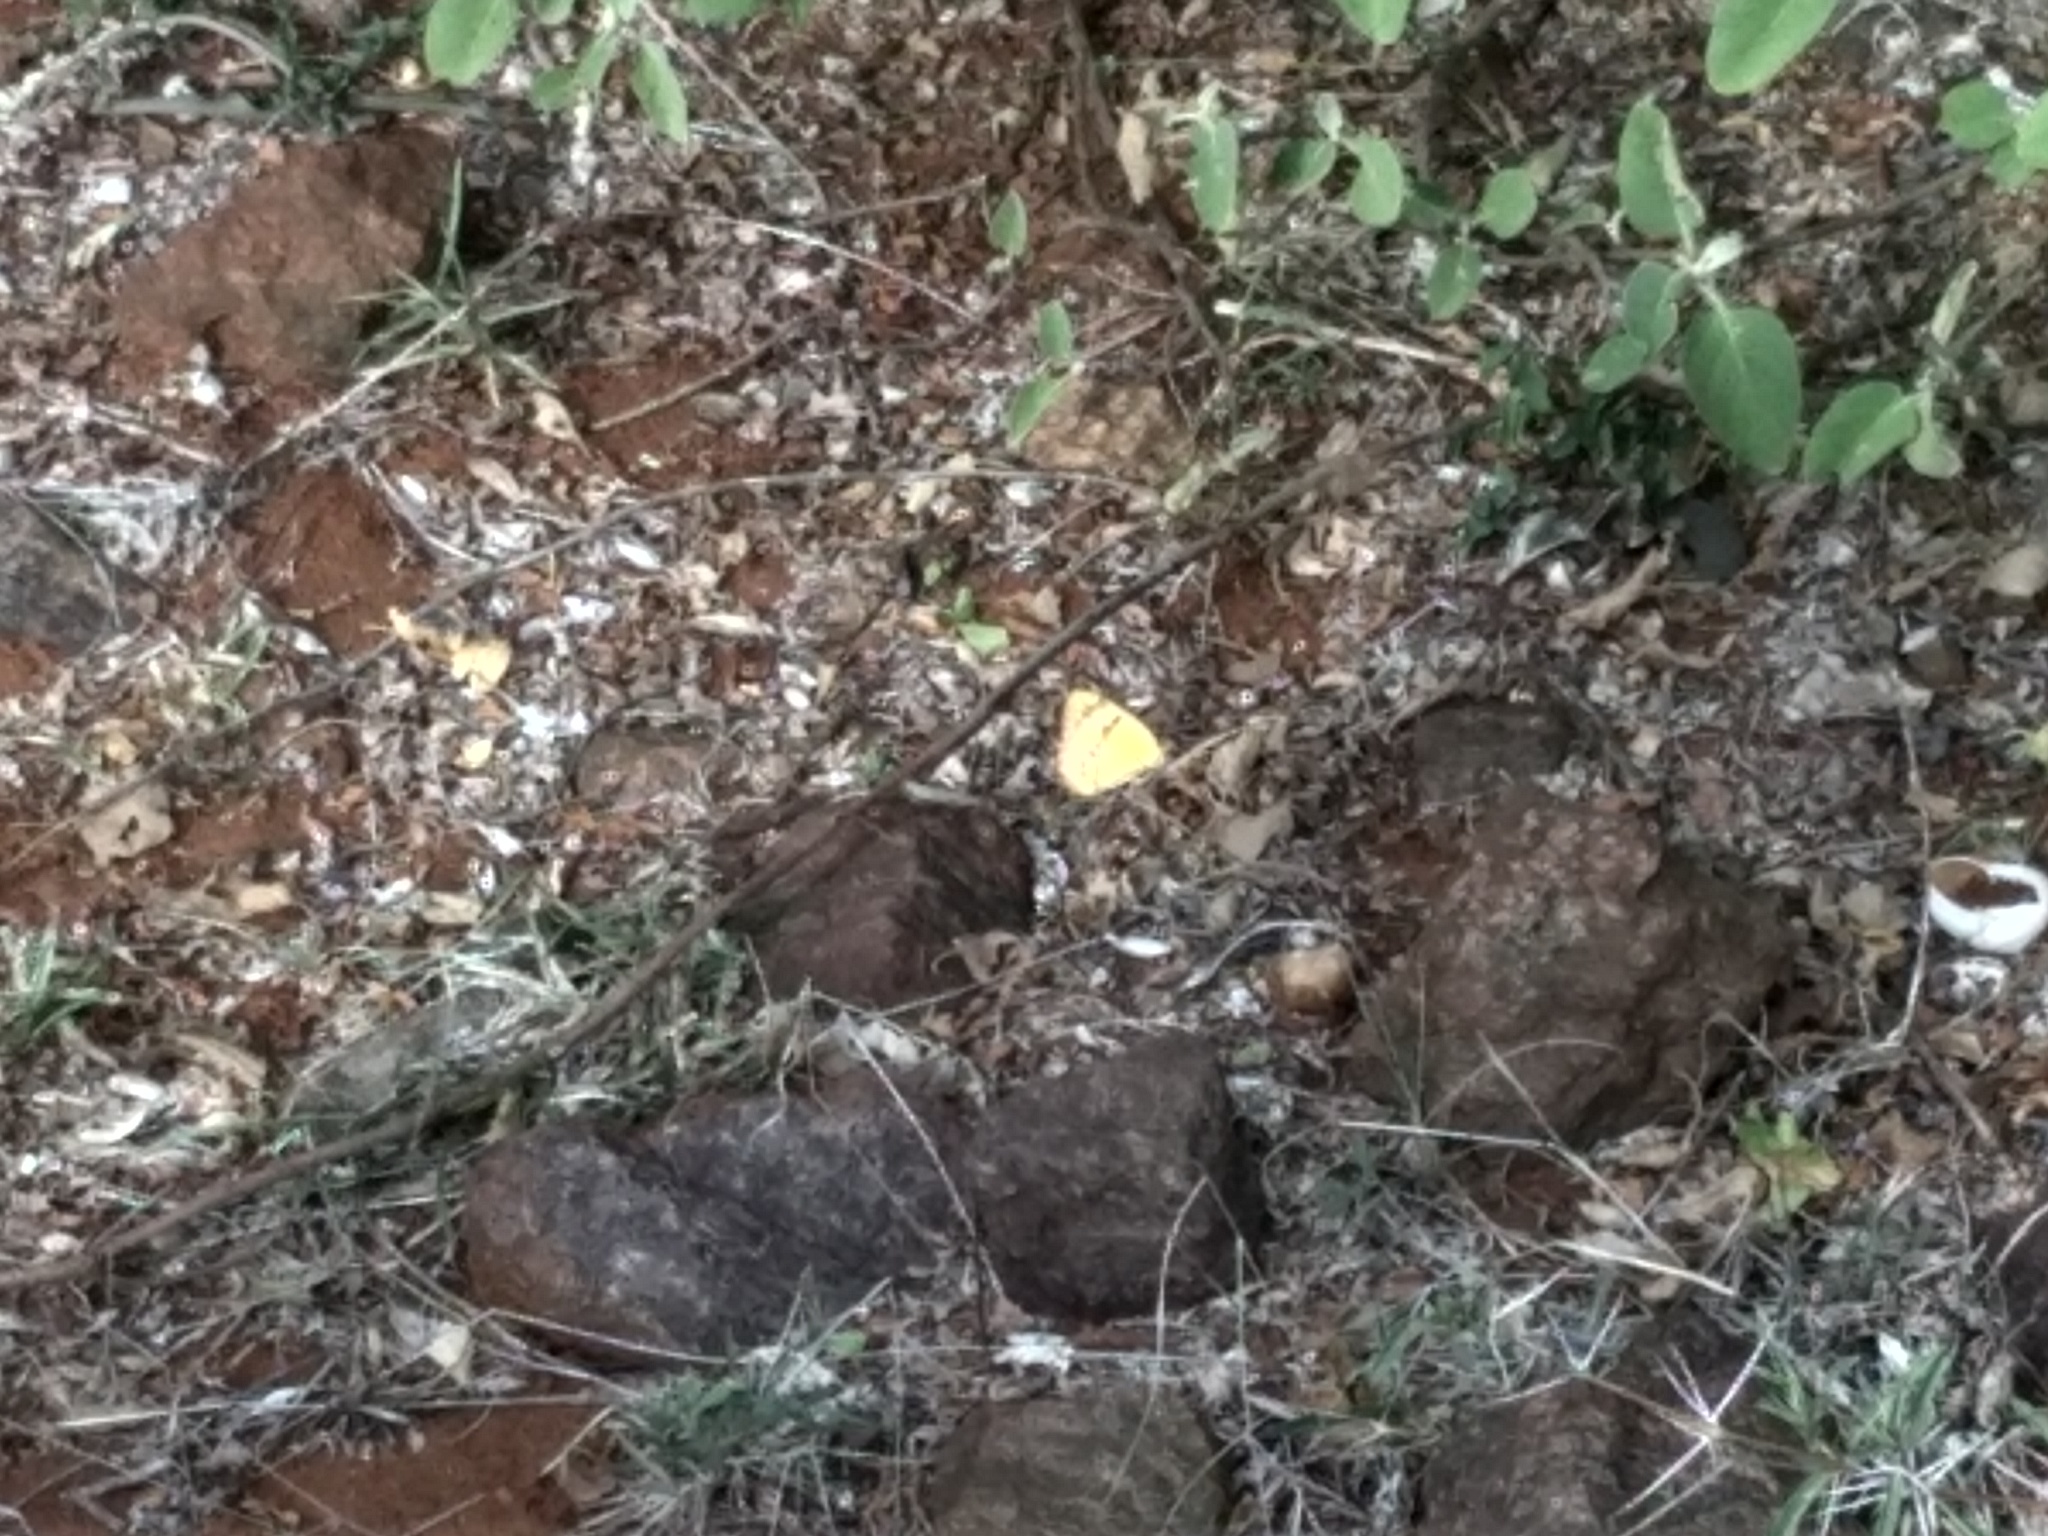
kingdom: Animalia
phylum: Arthropoda
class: Insecta
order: Lepidoptera
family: Pieridae
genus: Colotis
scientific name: Colotis fausta
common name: Large salmon arab
